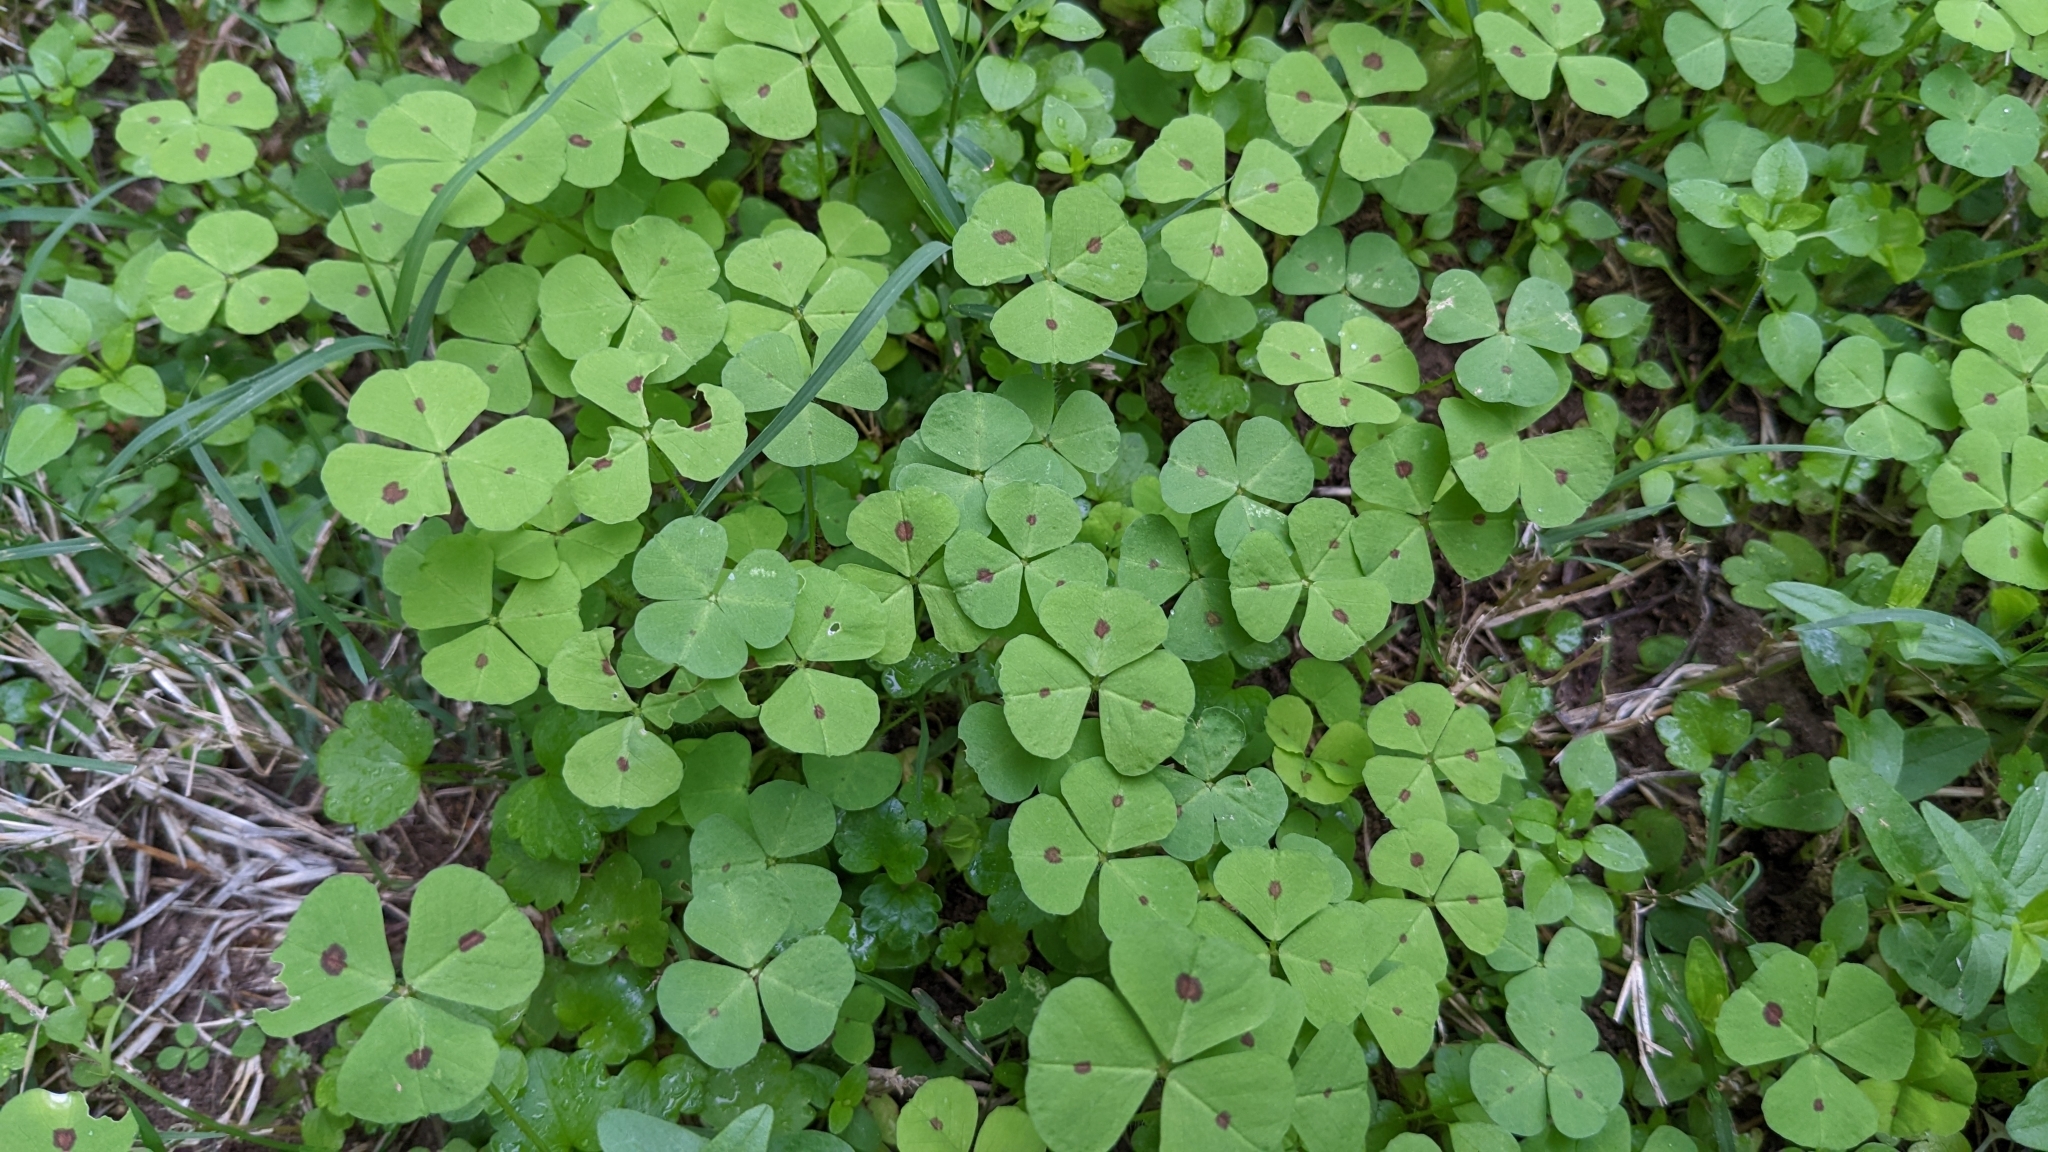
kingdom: Plantae
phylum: Tracheophyta
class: Magnoliopsida
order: Fabales
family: Fabaceae
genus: Medicago
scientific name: Medicago arabica
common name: Spotted medick
